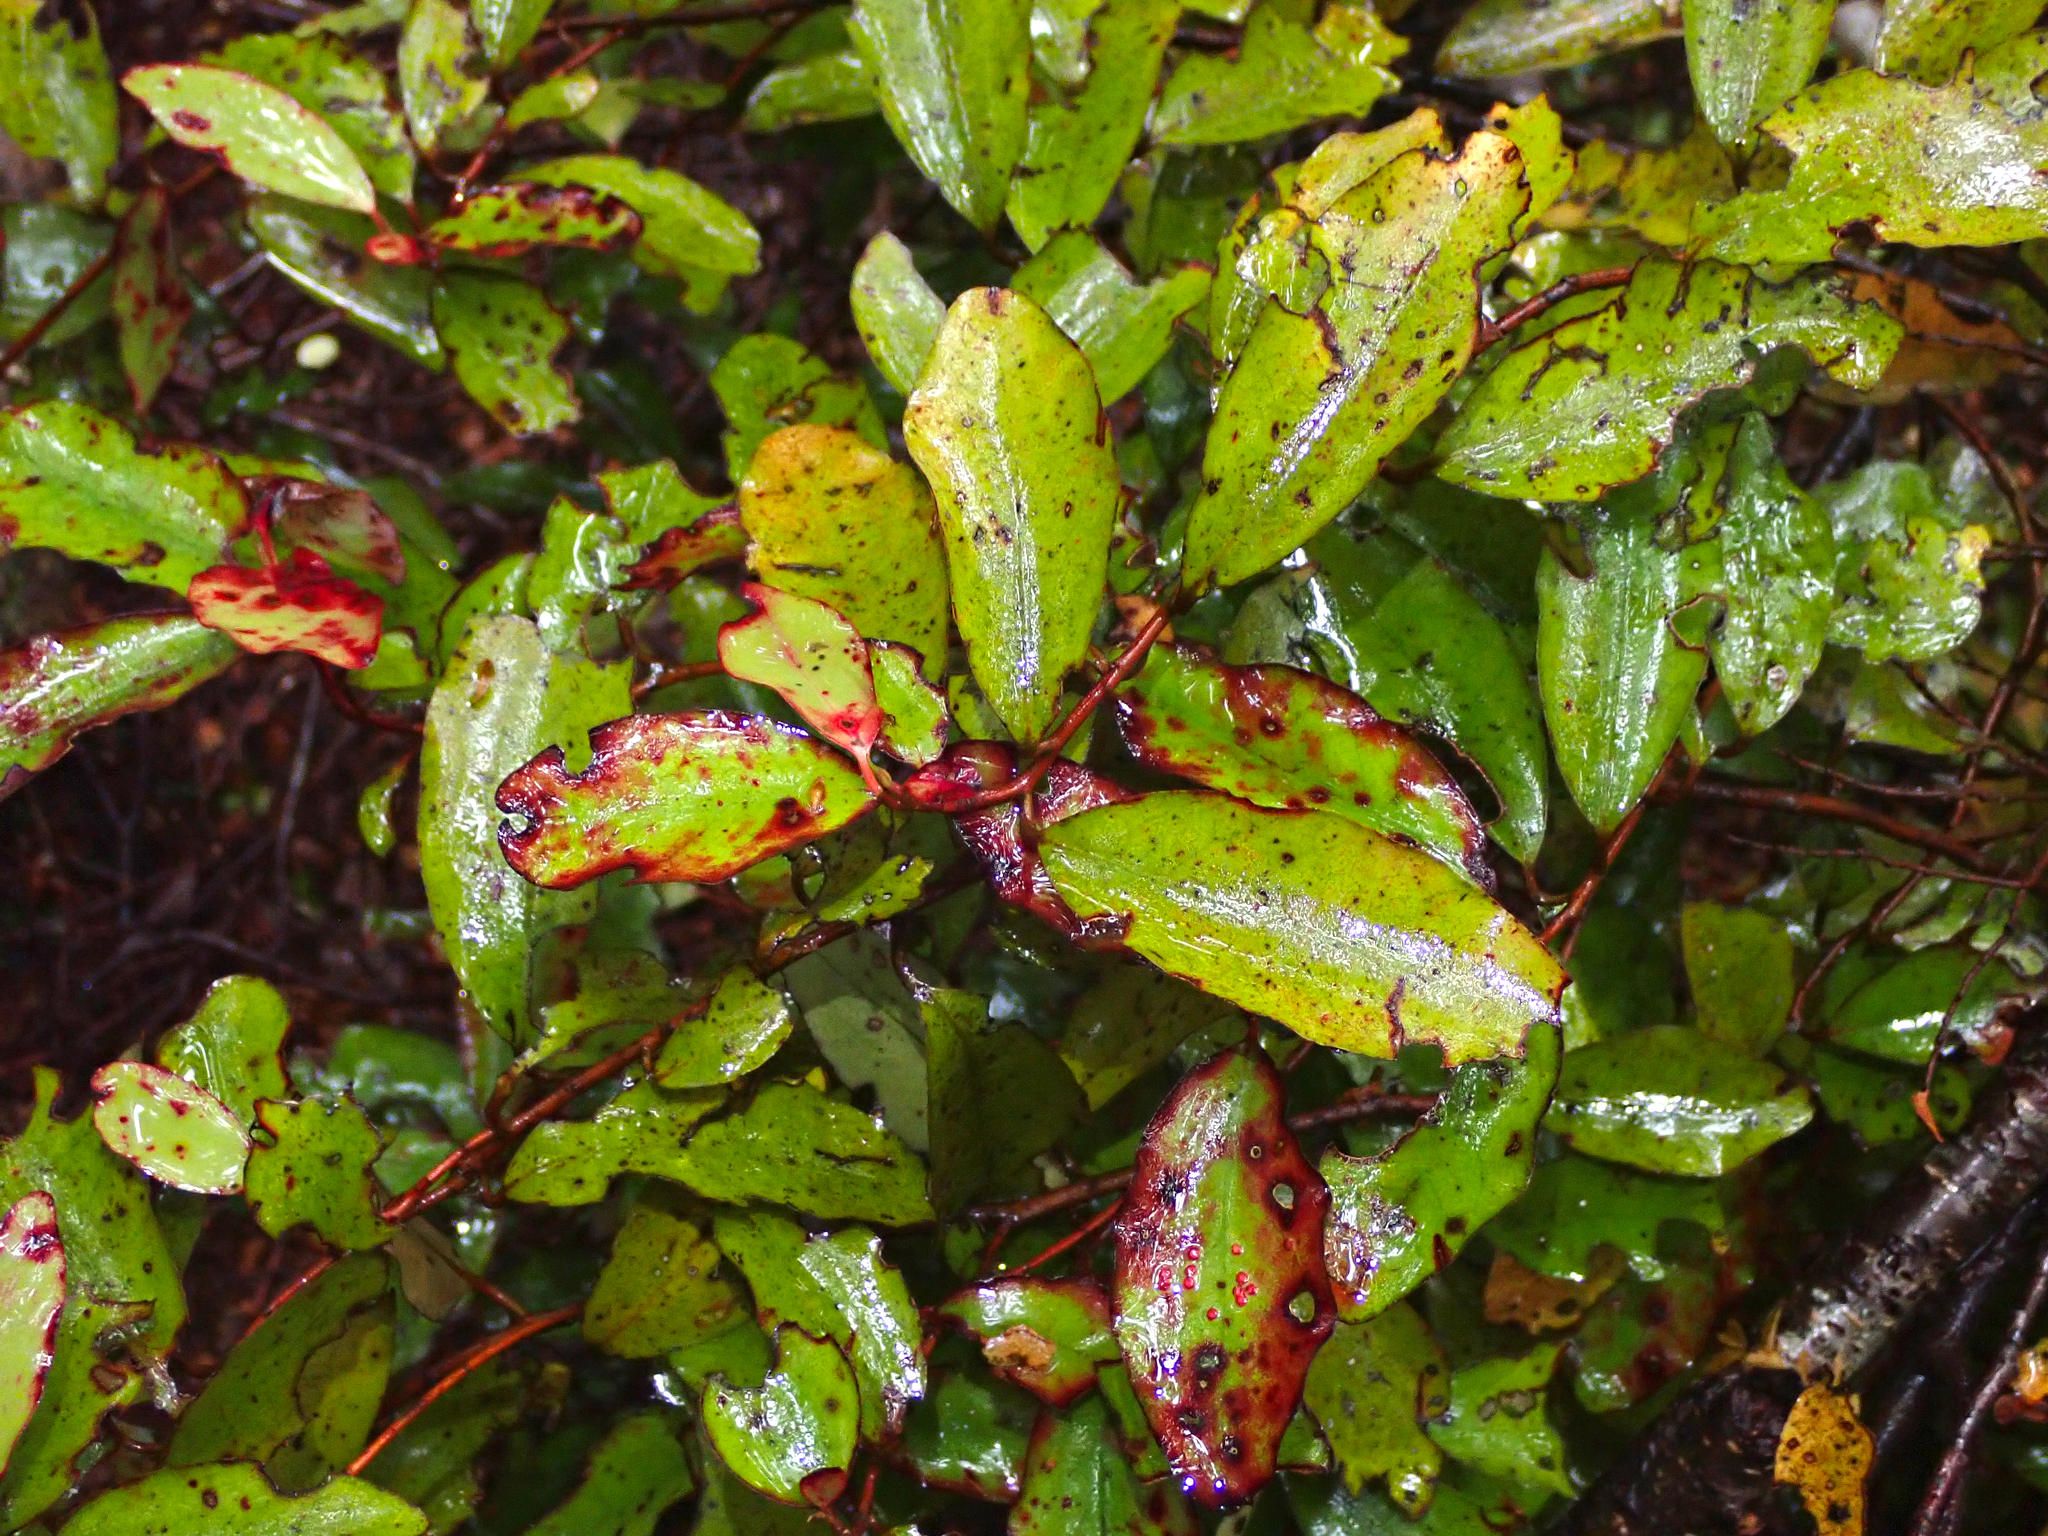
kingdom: Plantae
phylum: Tracheophyta
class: Magnoliopsida
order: Canellales
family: Winteraceae
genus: Pseudowintera
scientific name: Pseudowintera colorata
